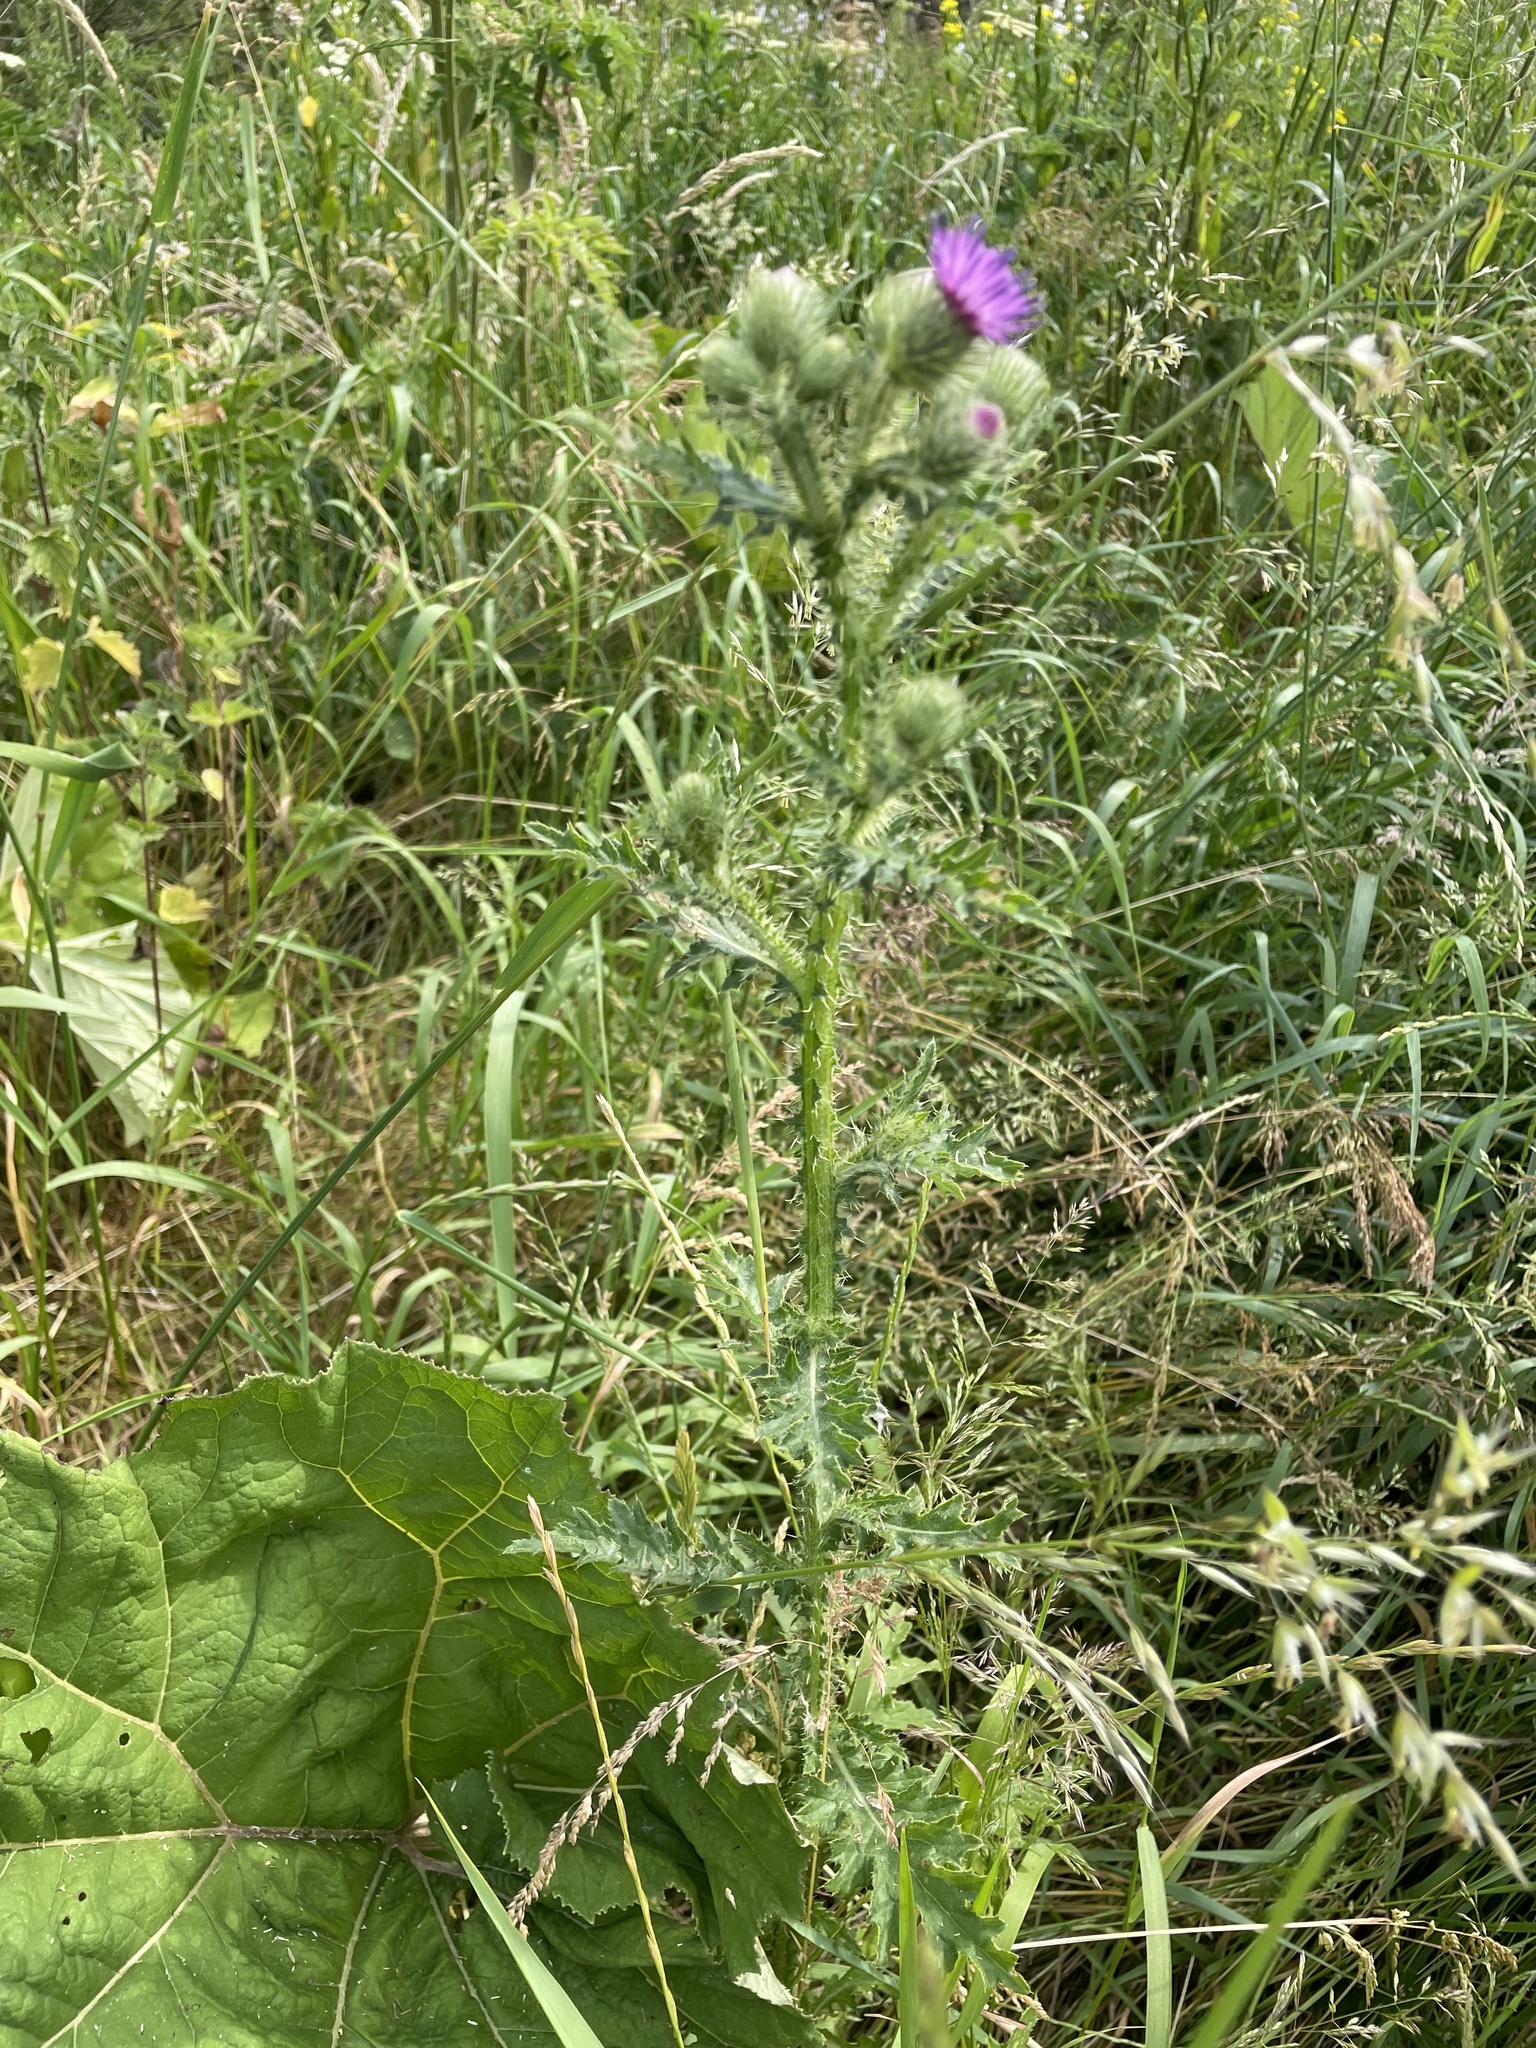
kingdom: Plantae
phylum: Tracheophyta
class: Magnoliopsida
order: Asterales
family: Asteraceae
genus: Carduus
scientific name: Carduus crispus
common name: Welted thistle
